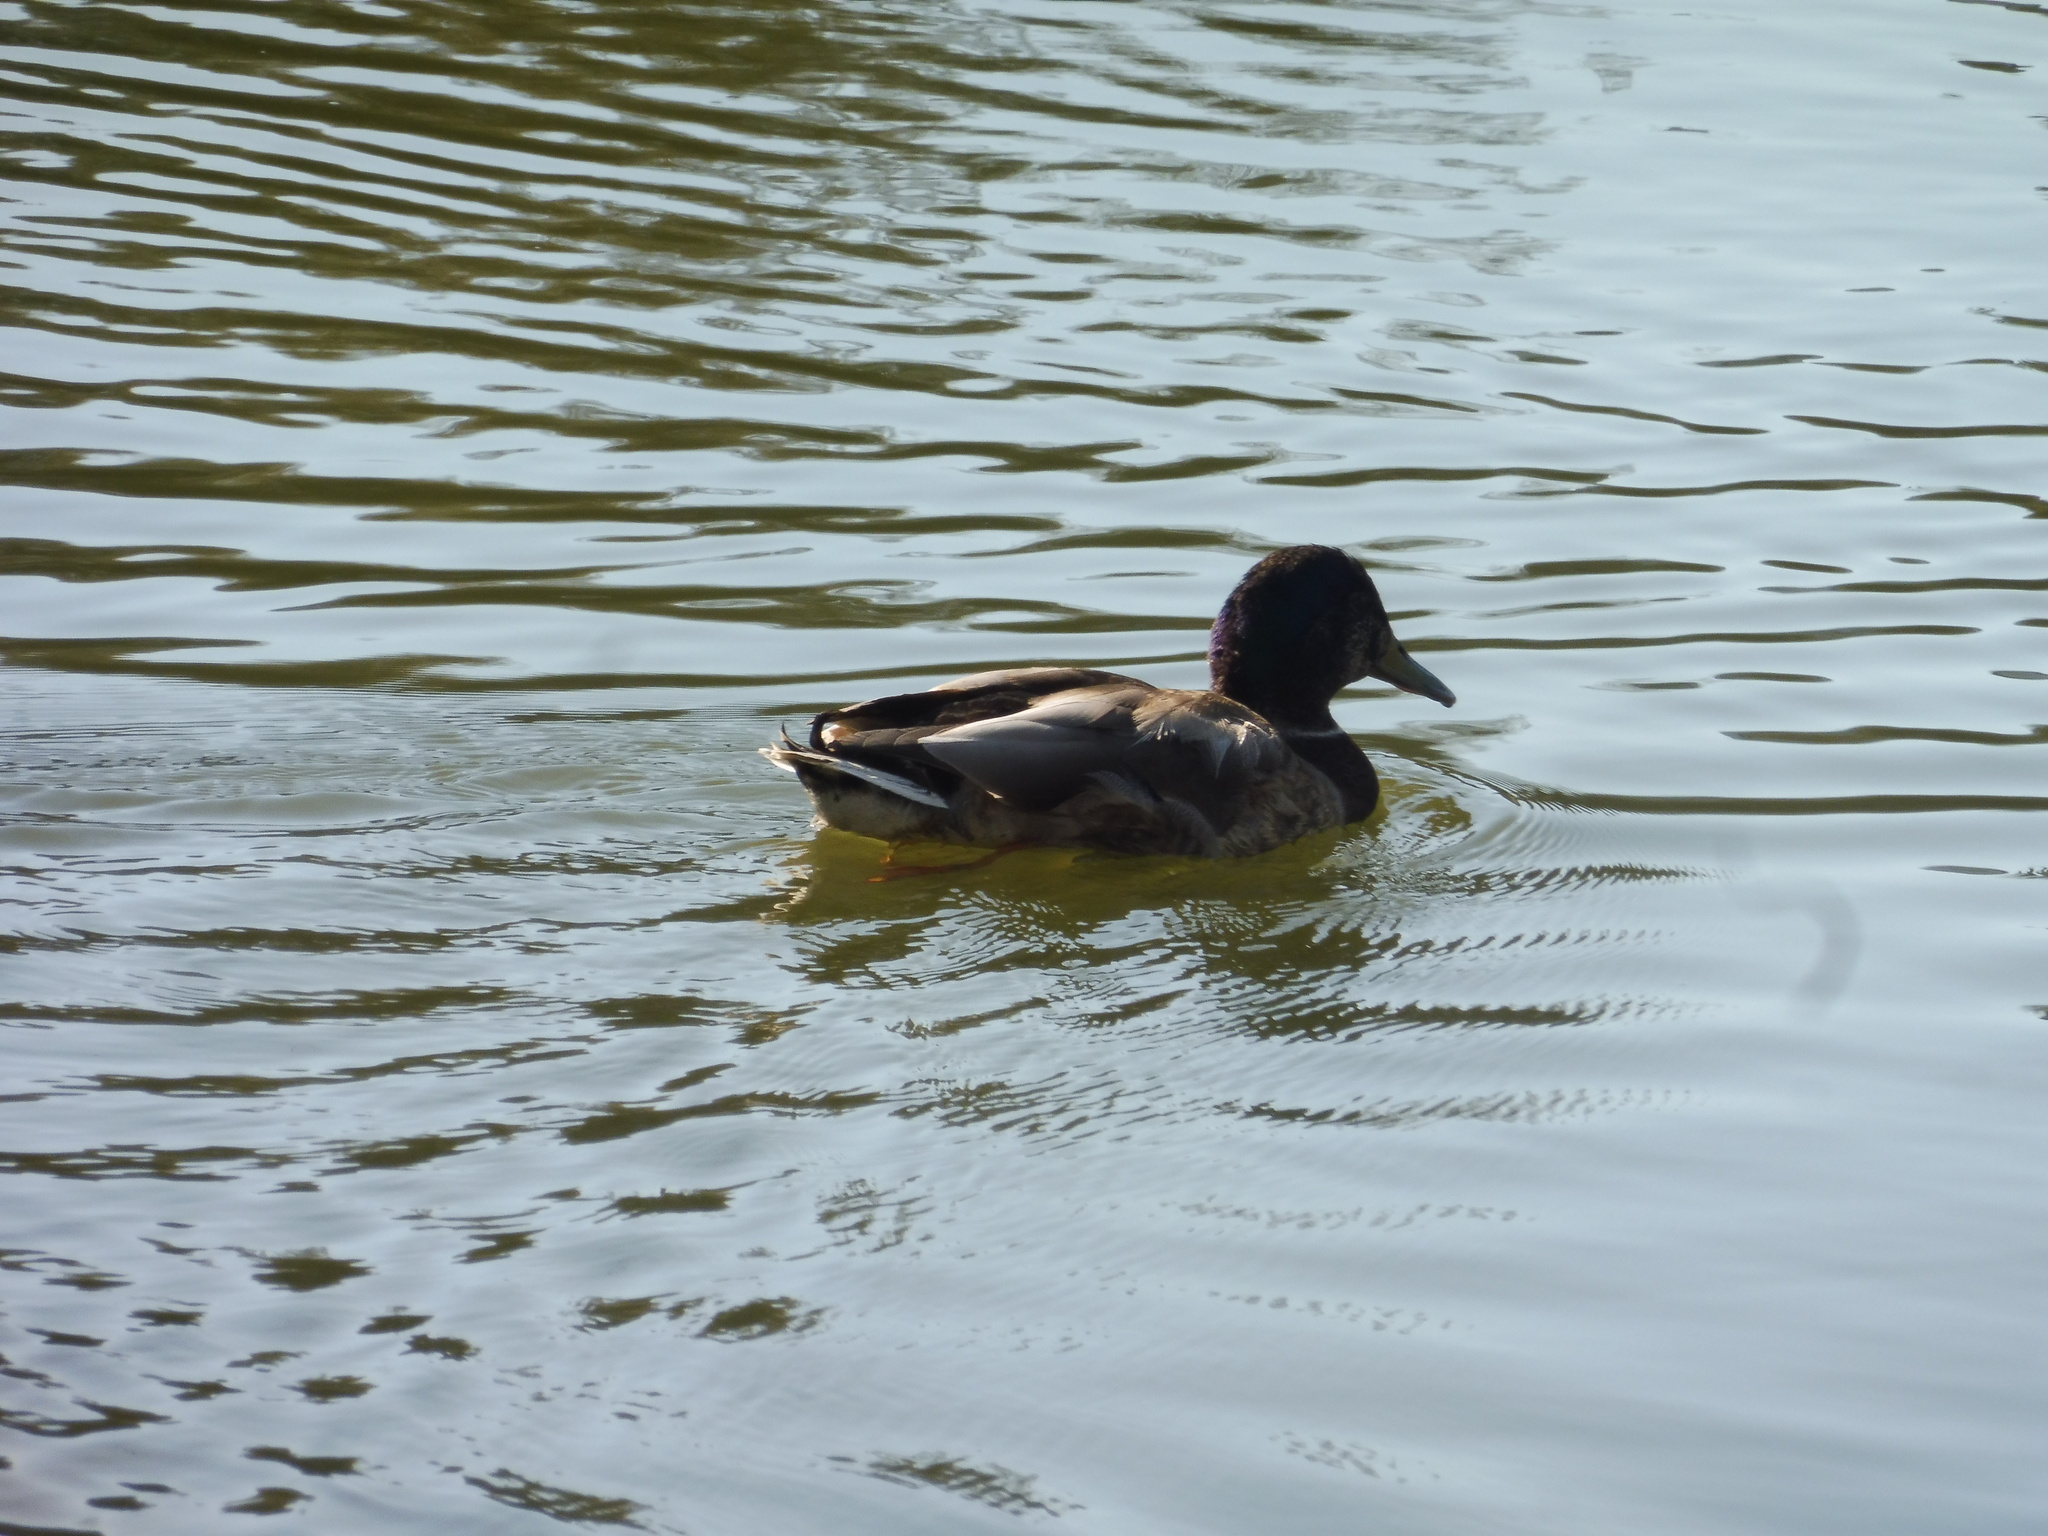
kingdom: Animalia
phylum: Chordata
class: Aves
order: Anseriformes
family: Anatidae
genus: Anas
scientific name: Anas platyrhynchos
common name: Mallard
